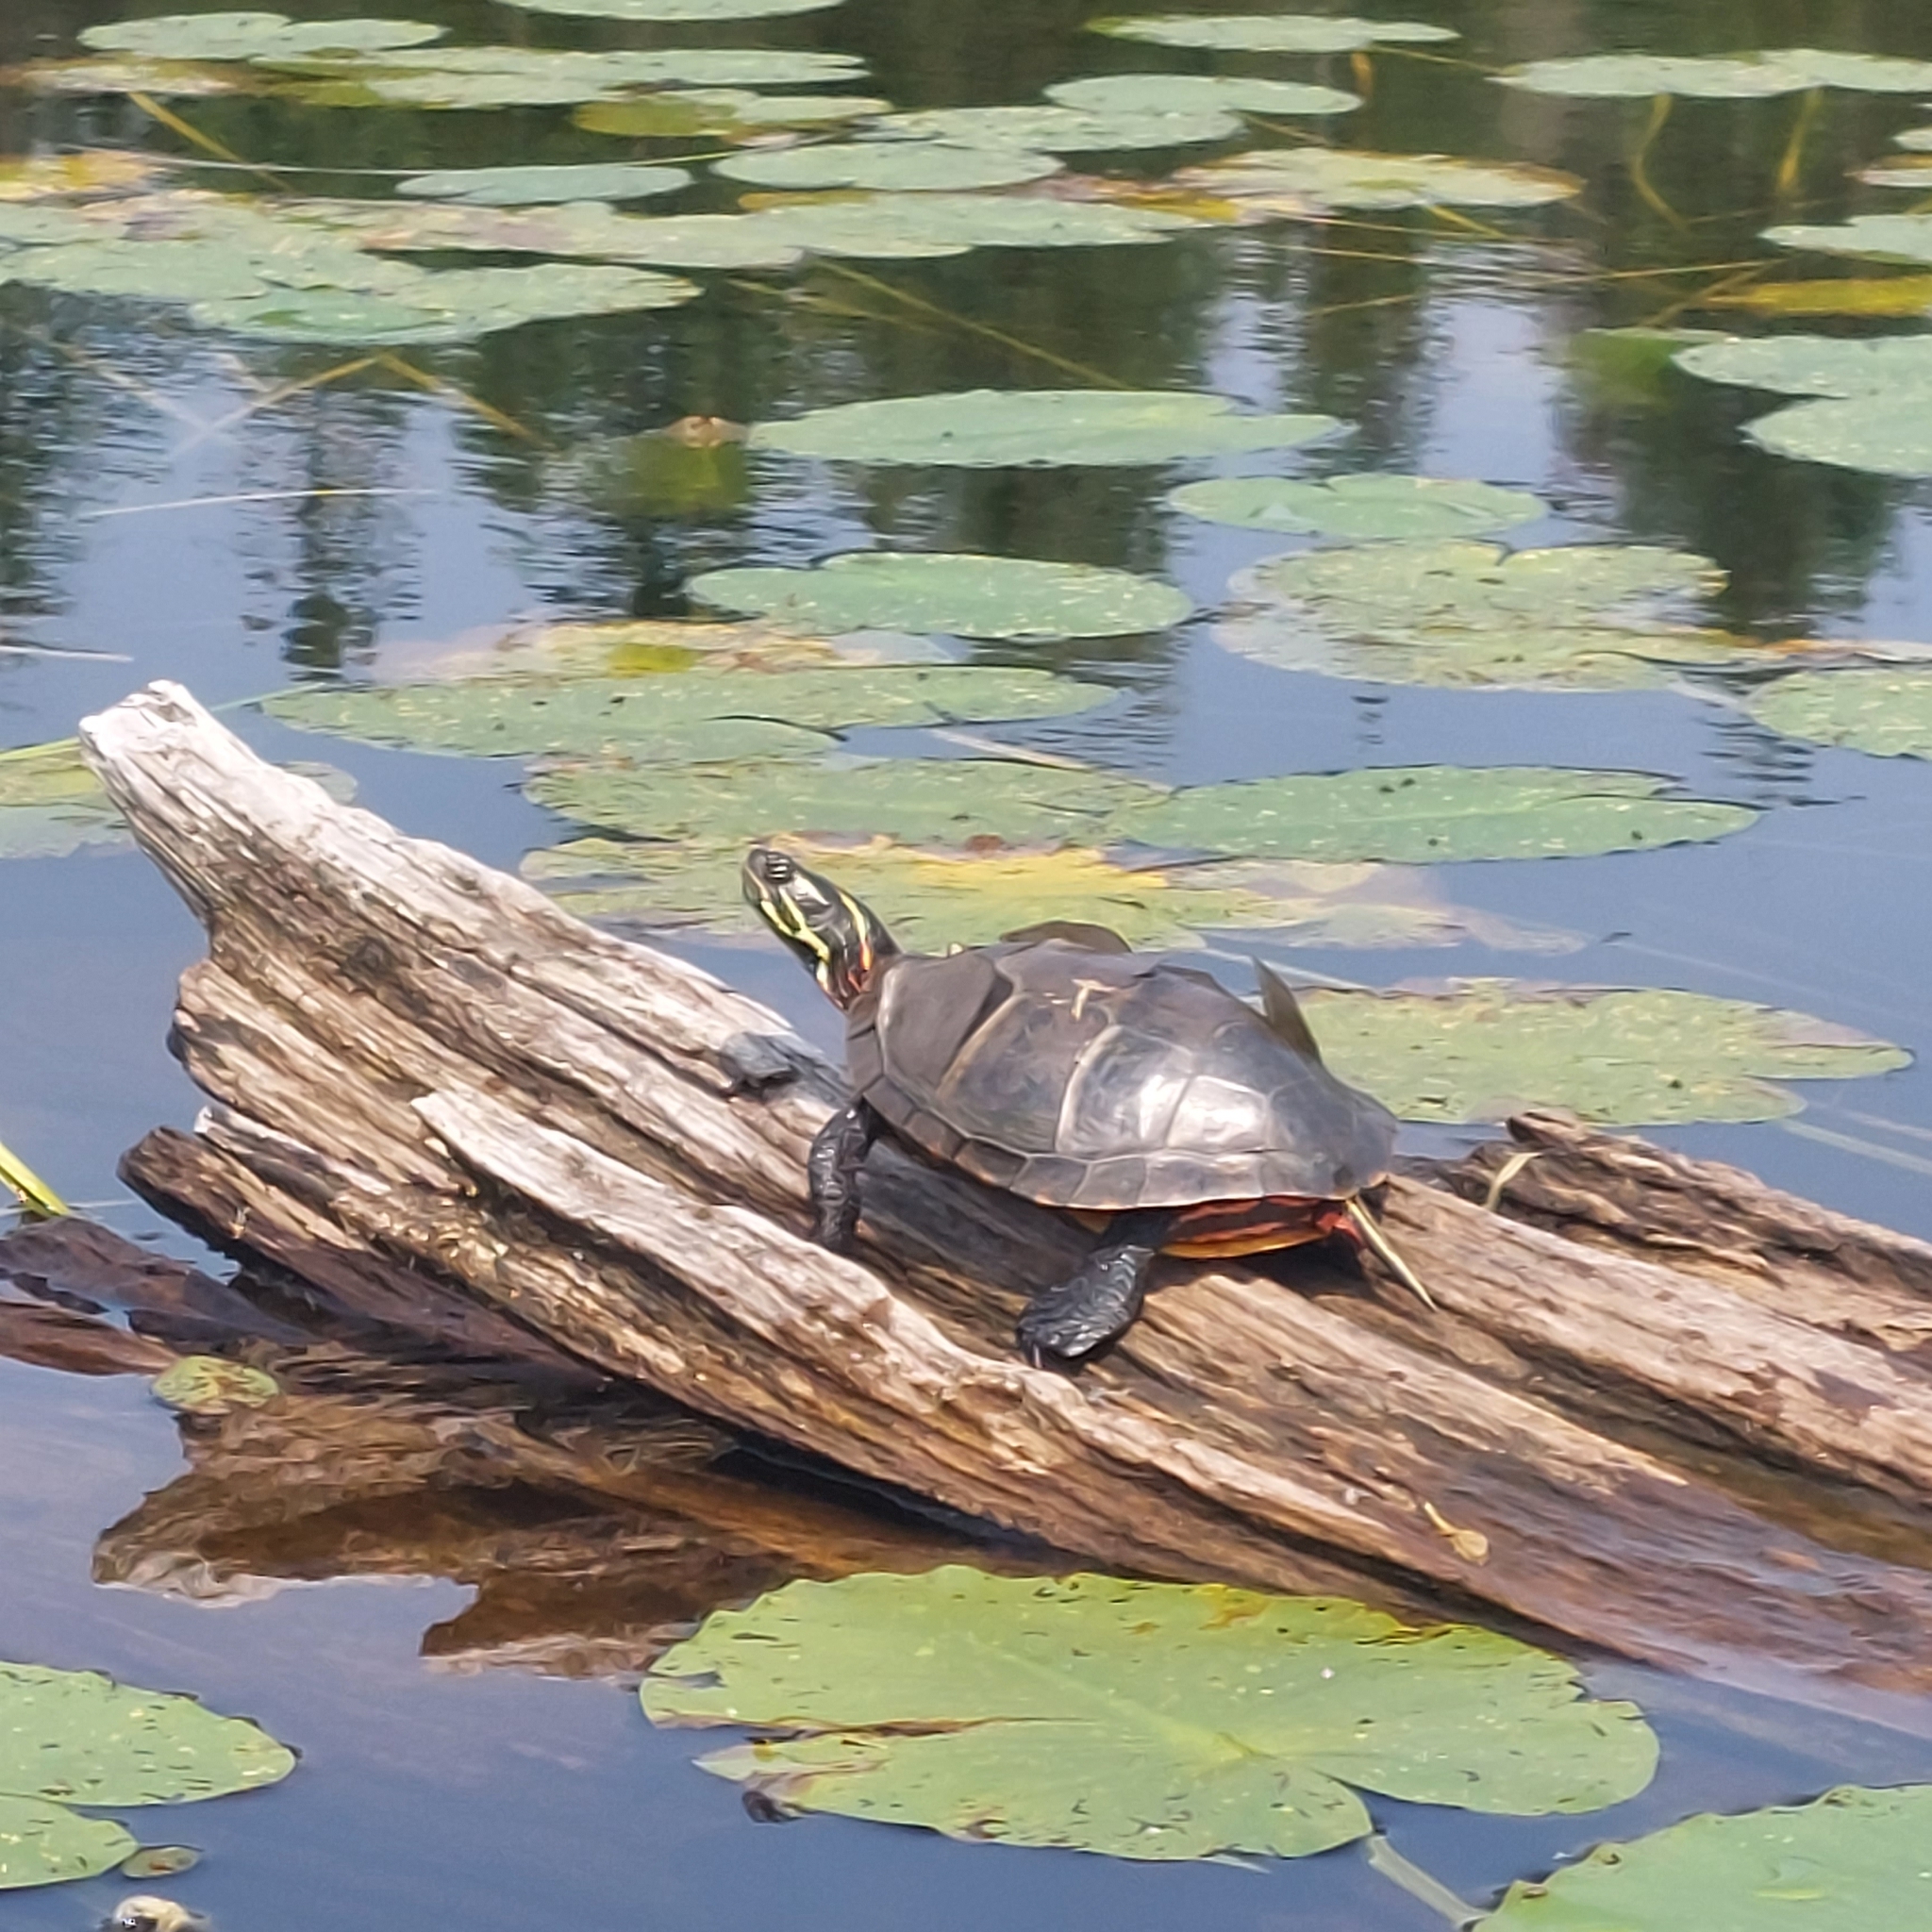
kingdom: Animalia
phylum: Chordata
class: Testudines
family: Emydidae
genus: Chrysemys
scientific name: Chrysemys picta
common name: Painted turtle
